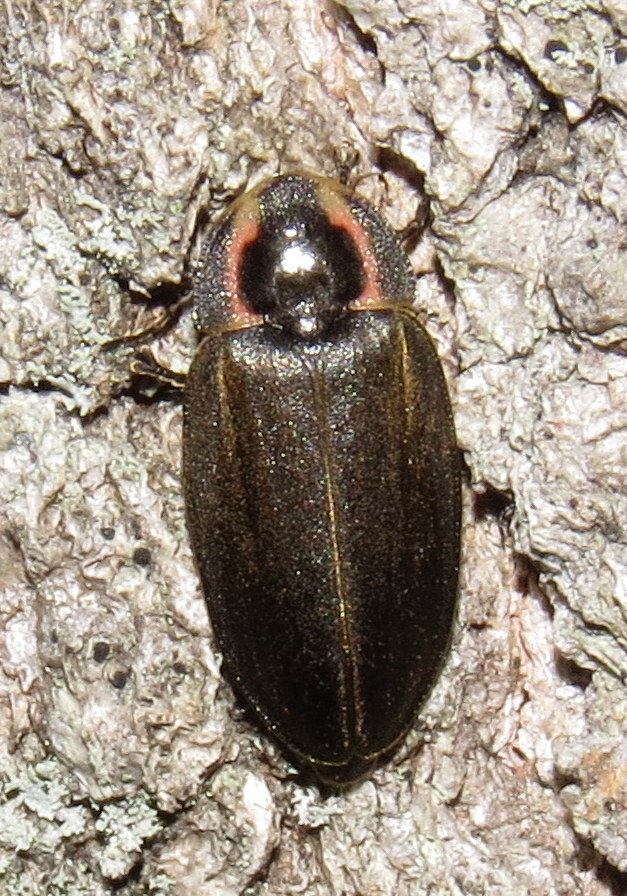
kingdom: Animalia
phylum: Arthropoda
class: Insecta
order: Coleoptera
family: Lampyridae
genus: Photinus
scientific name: Photinus corrusca
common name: Winter firefly
